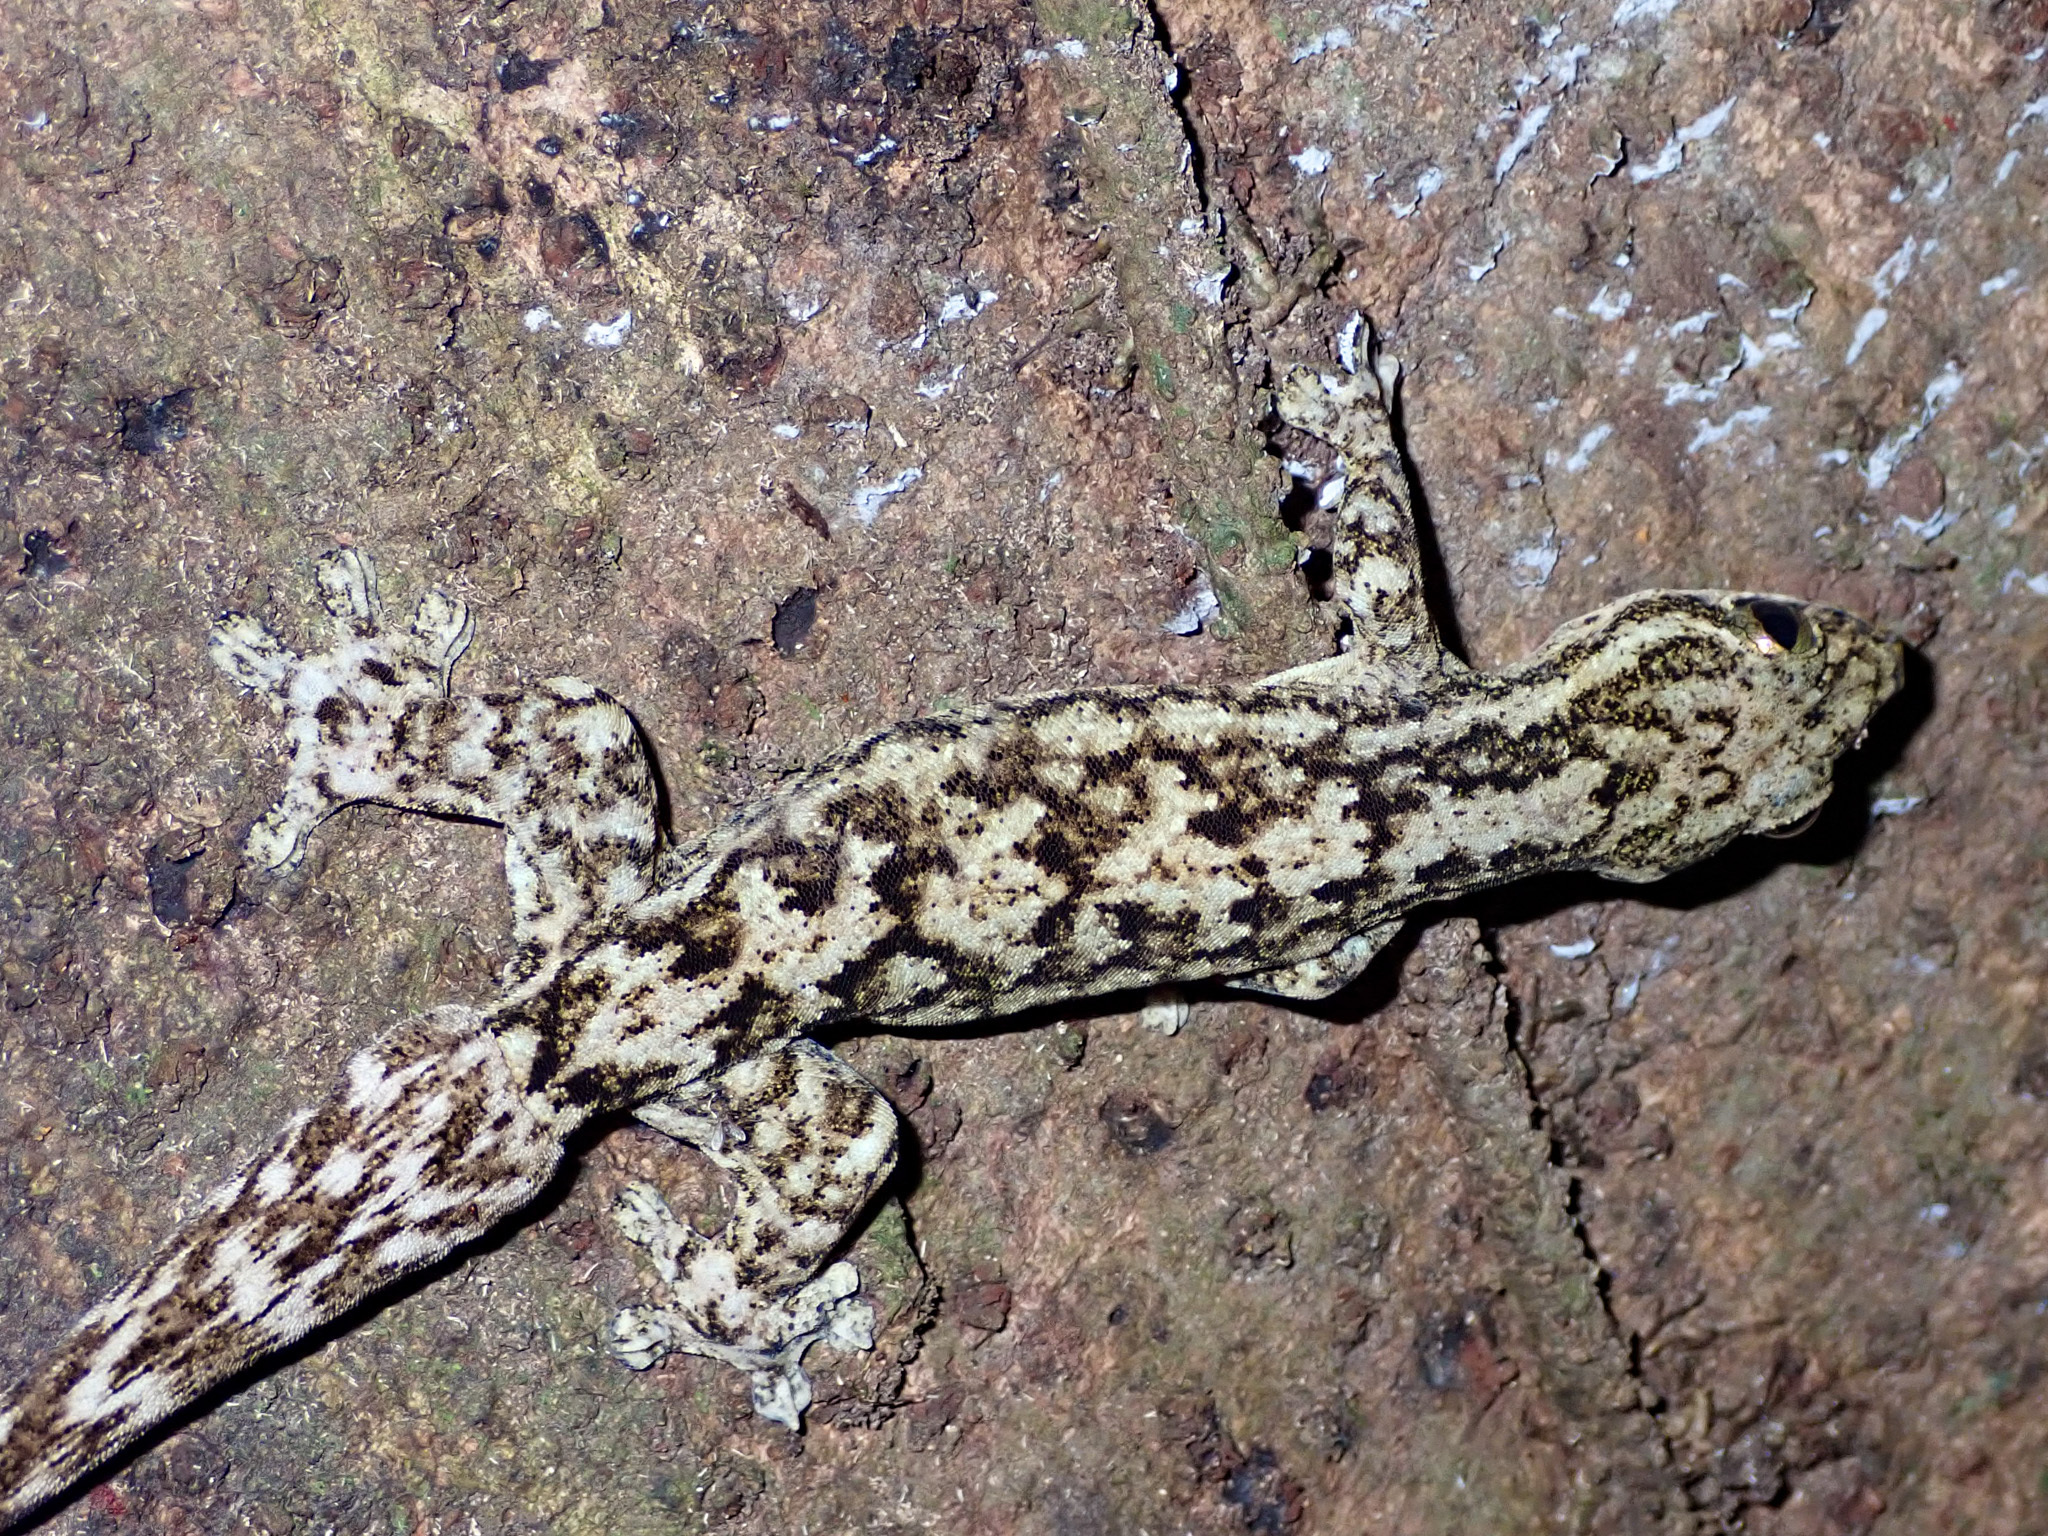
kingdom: Animalia
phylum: Chordata
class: Squamata
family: Phyllodactylidae
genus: Thecadactylus
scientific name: Thecadactylus rapicauda
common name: Turnip-tailed gecko
